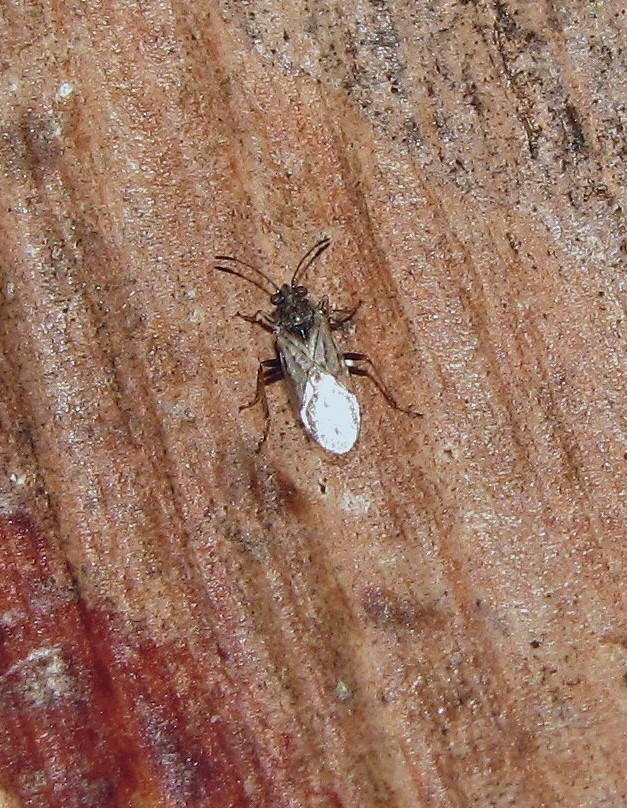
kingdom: Animalia
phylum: Arthropoda
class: Insecta
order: Hemiptera
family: Lygaeidae
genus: Nysius
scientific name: Nysius simulans
